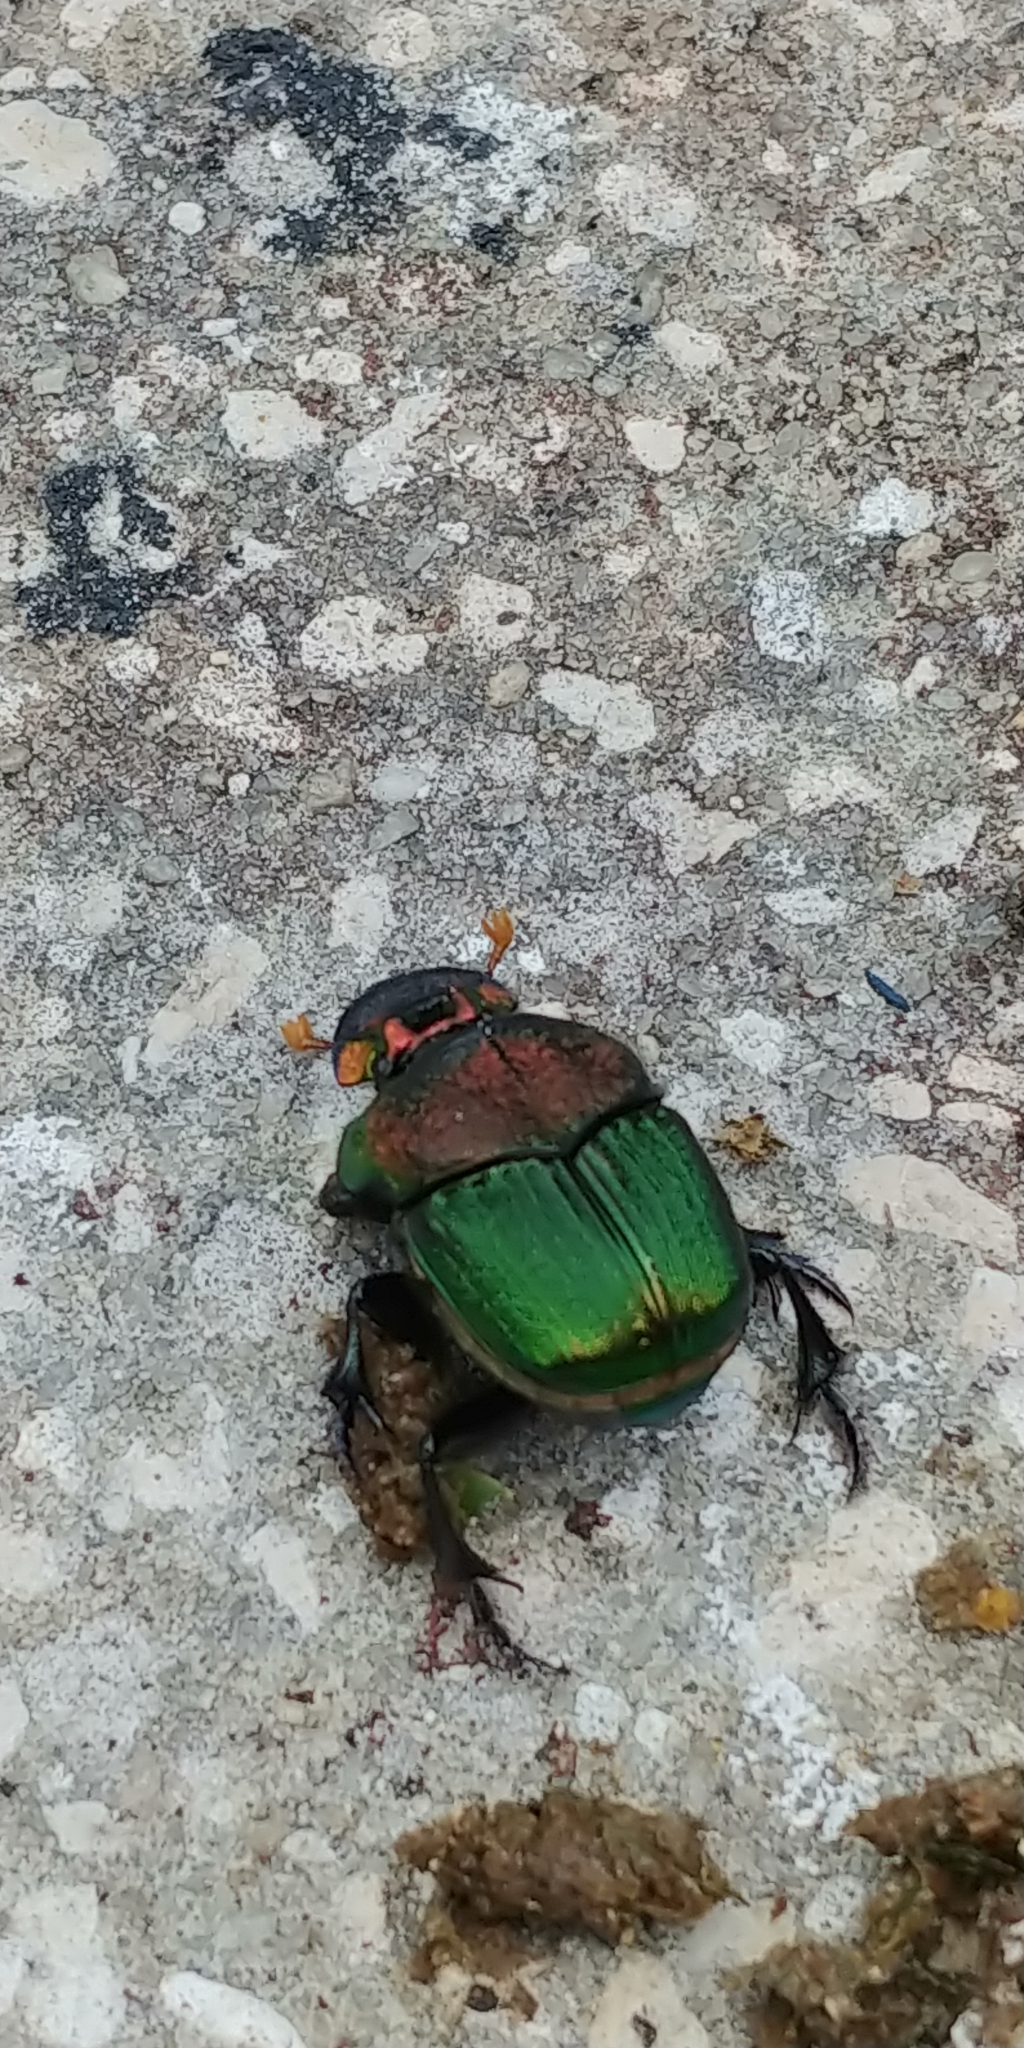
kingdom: Animalia
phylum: Arthropoda
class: Insecta
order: Coleoptera
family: Scarabaeidae
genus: Phanaeus
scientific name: Phanaeus vindex
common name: Rainbow scarab
